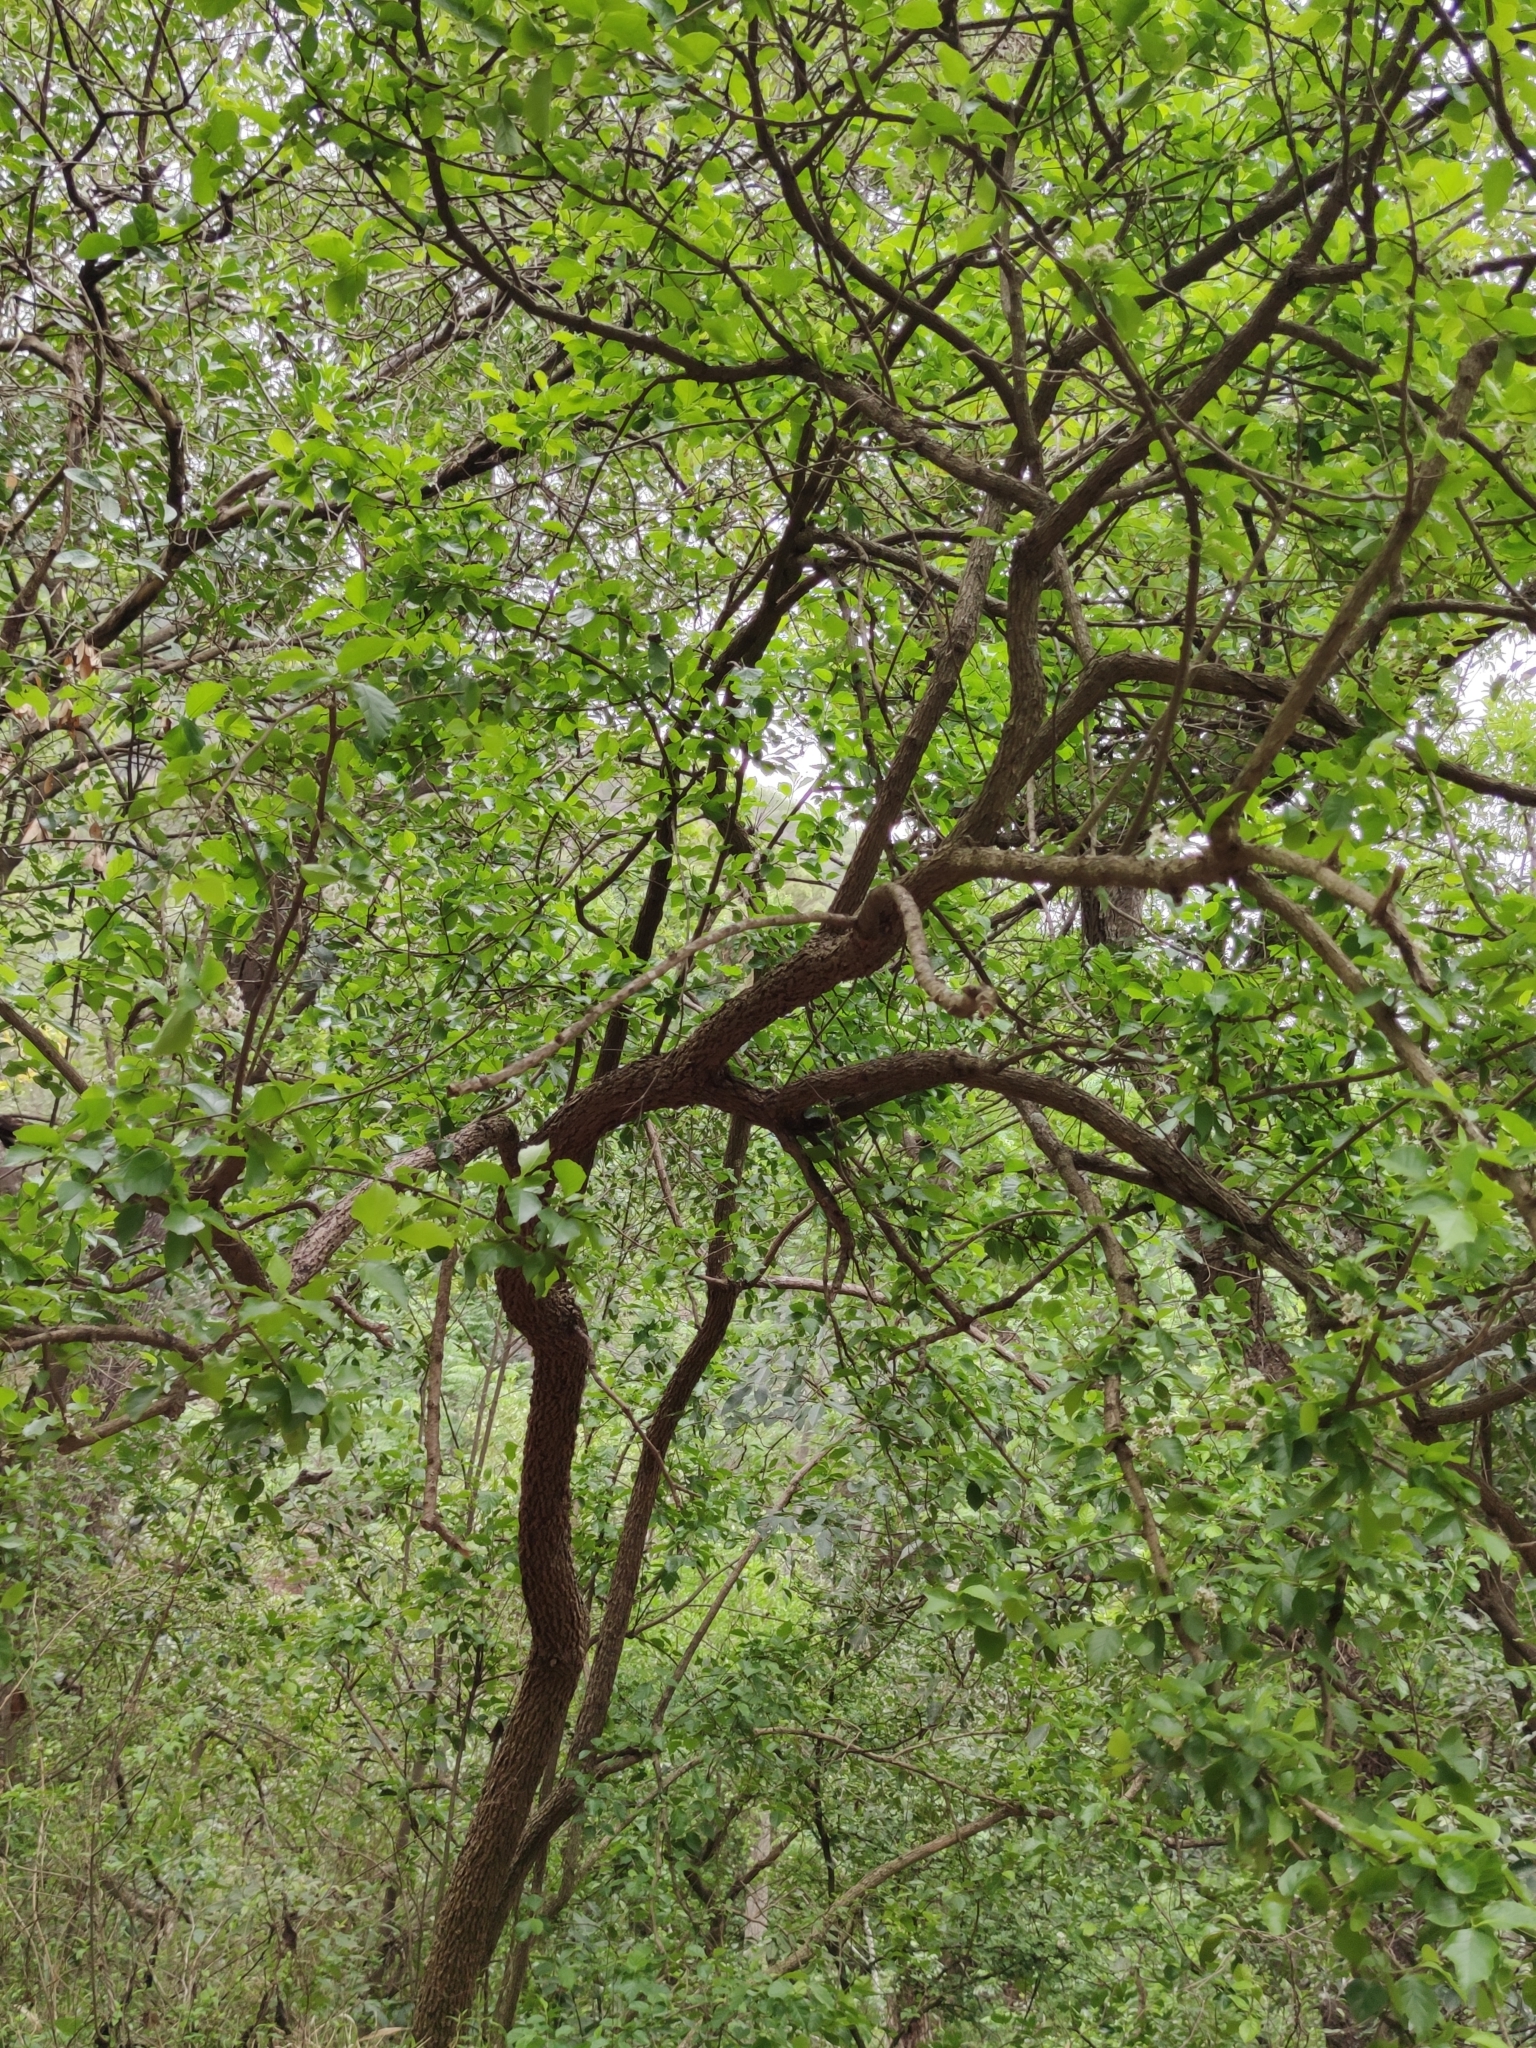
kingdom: Plantae
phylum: Tracheophyta
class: Magnoliopsida
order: Boraginales
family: Ehretiaceae
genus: Ehretia
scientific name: Ehretia anacua
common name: Sugarberry
